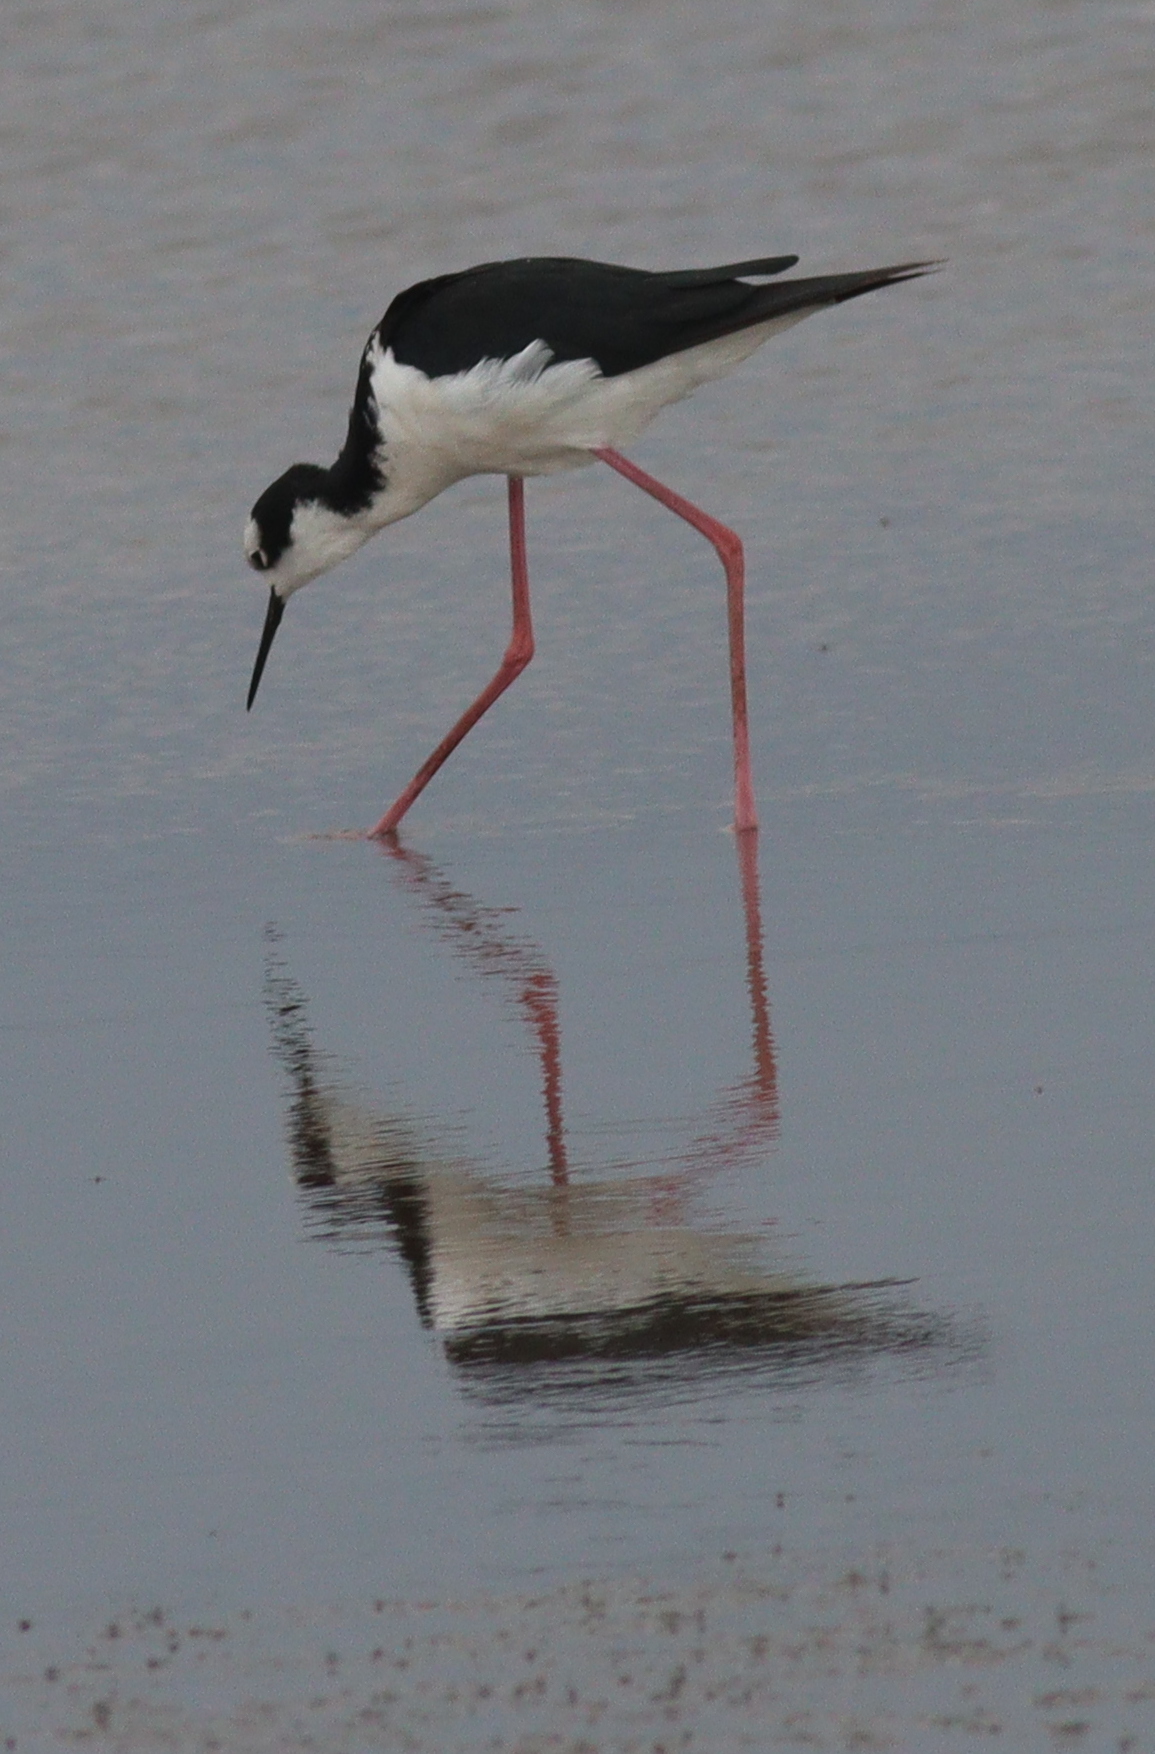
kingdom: Animalia
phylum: Chordata
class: Aves
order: Charadriiformes
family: Recurvirostridae
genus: Himantopus
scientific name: Himantopus mexicanus
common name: Black-necked stilt
